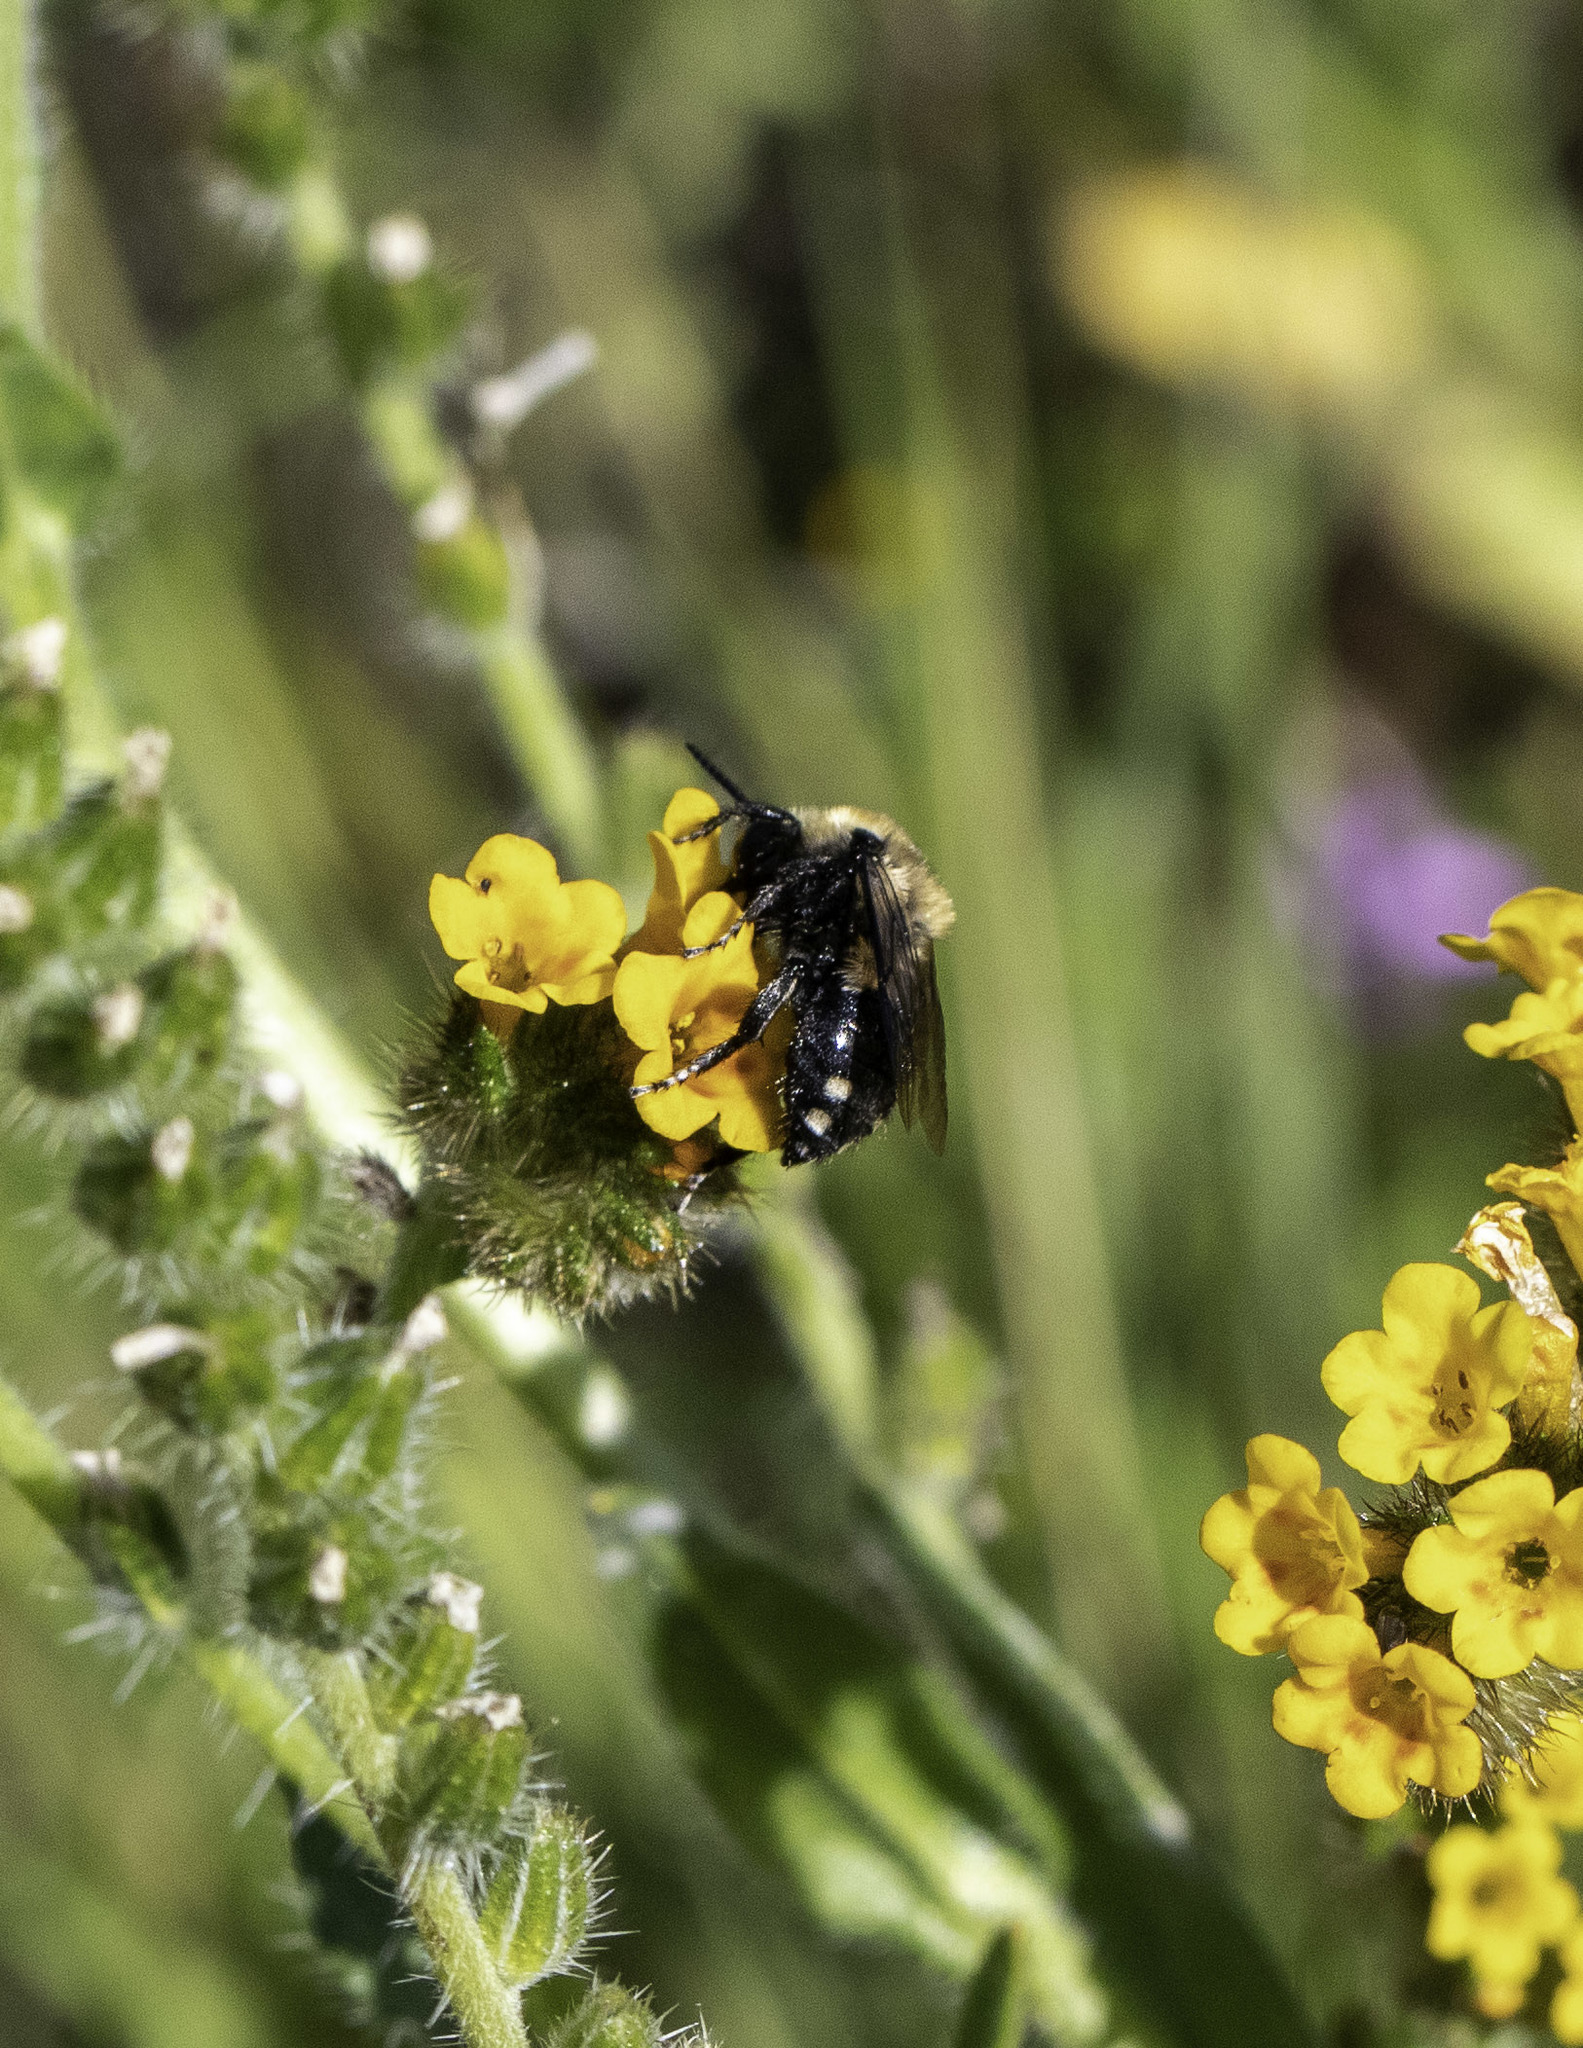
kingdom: Animalia
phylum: Arthropoda
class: Insecta
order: Hymenoptera
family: Apidae
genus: Melecta
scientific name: Melecta separata
